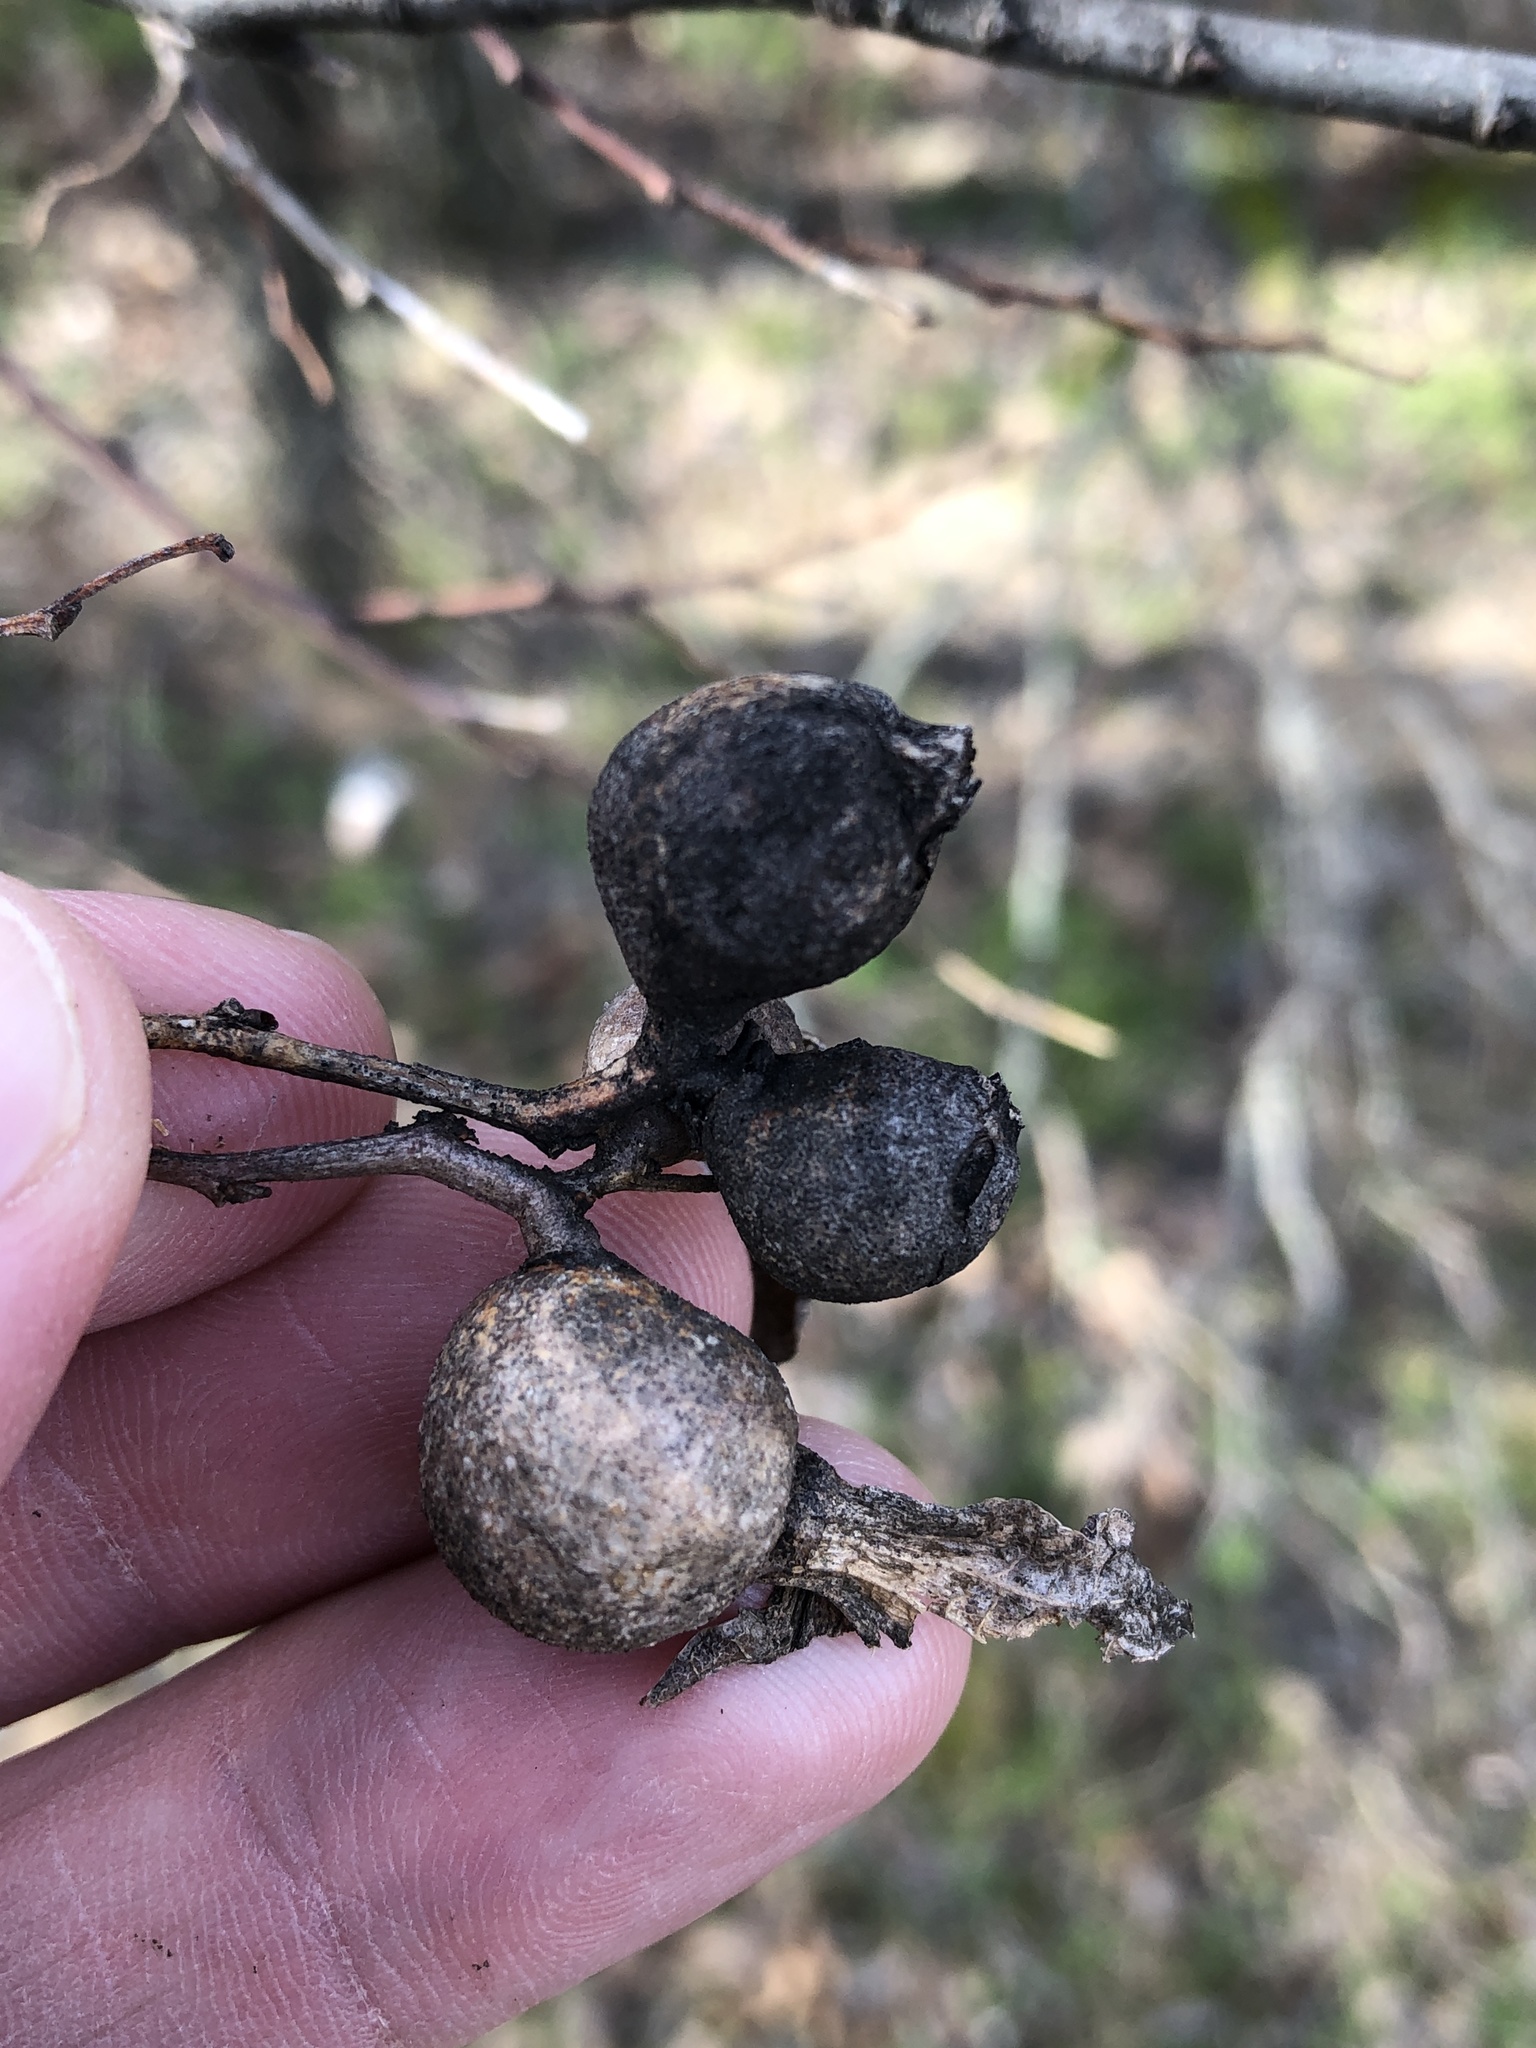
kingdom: Animalia
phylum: Arthropoda
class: Insecta
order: Hemiptera
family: Aphalaridae
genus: Pachypsylla
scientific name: Pachypsylla venusta
